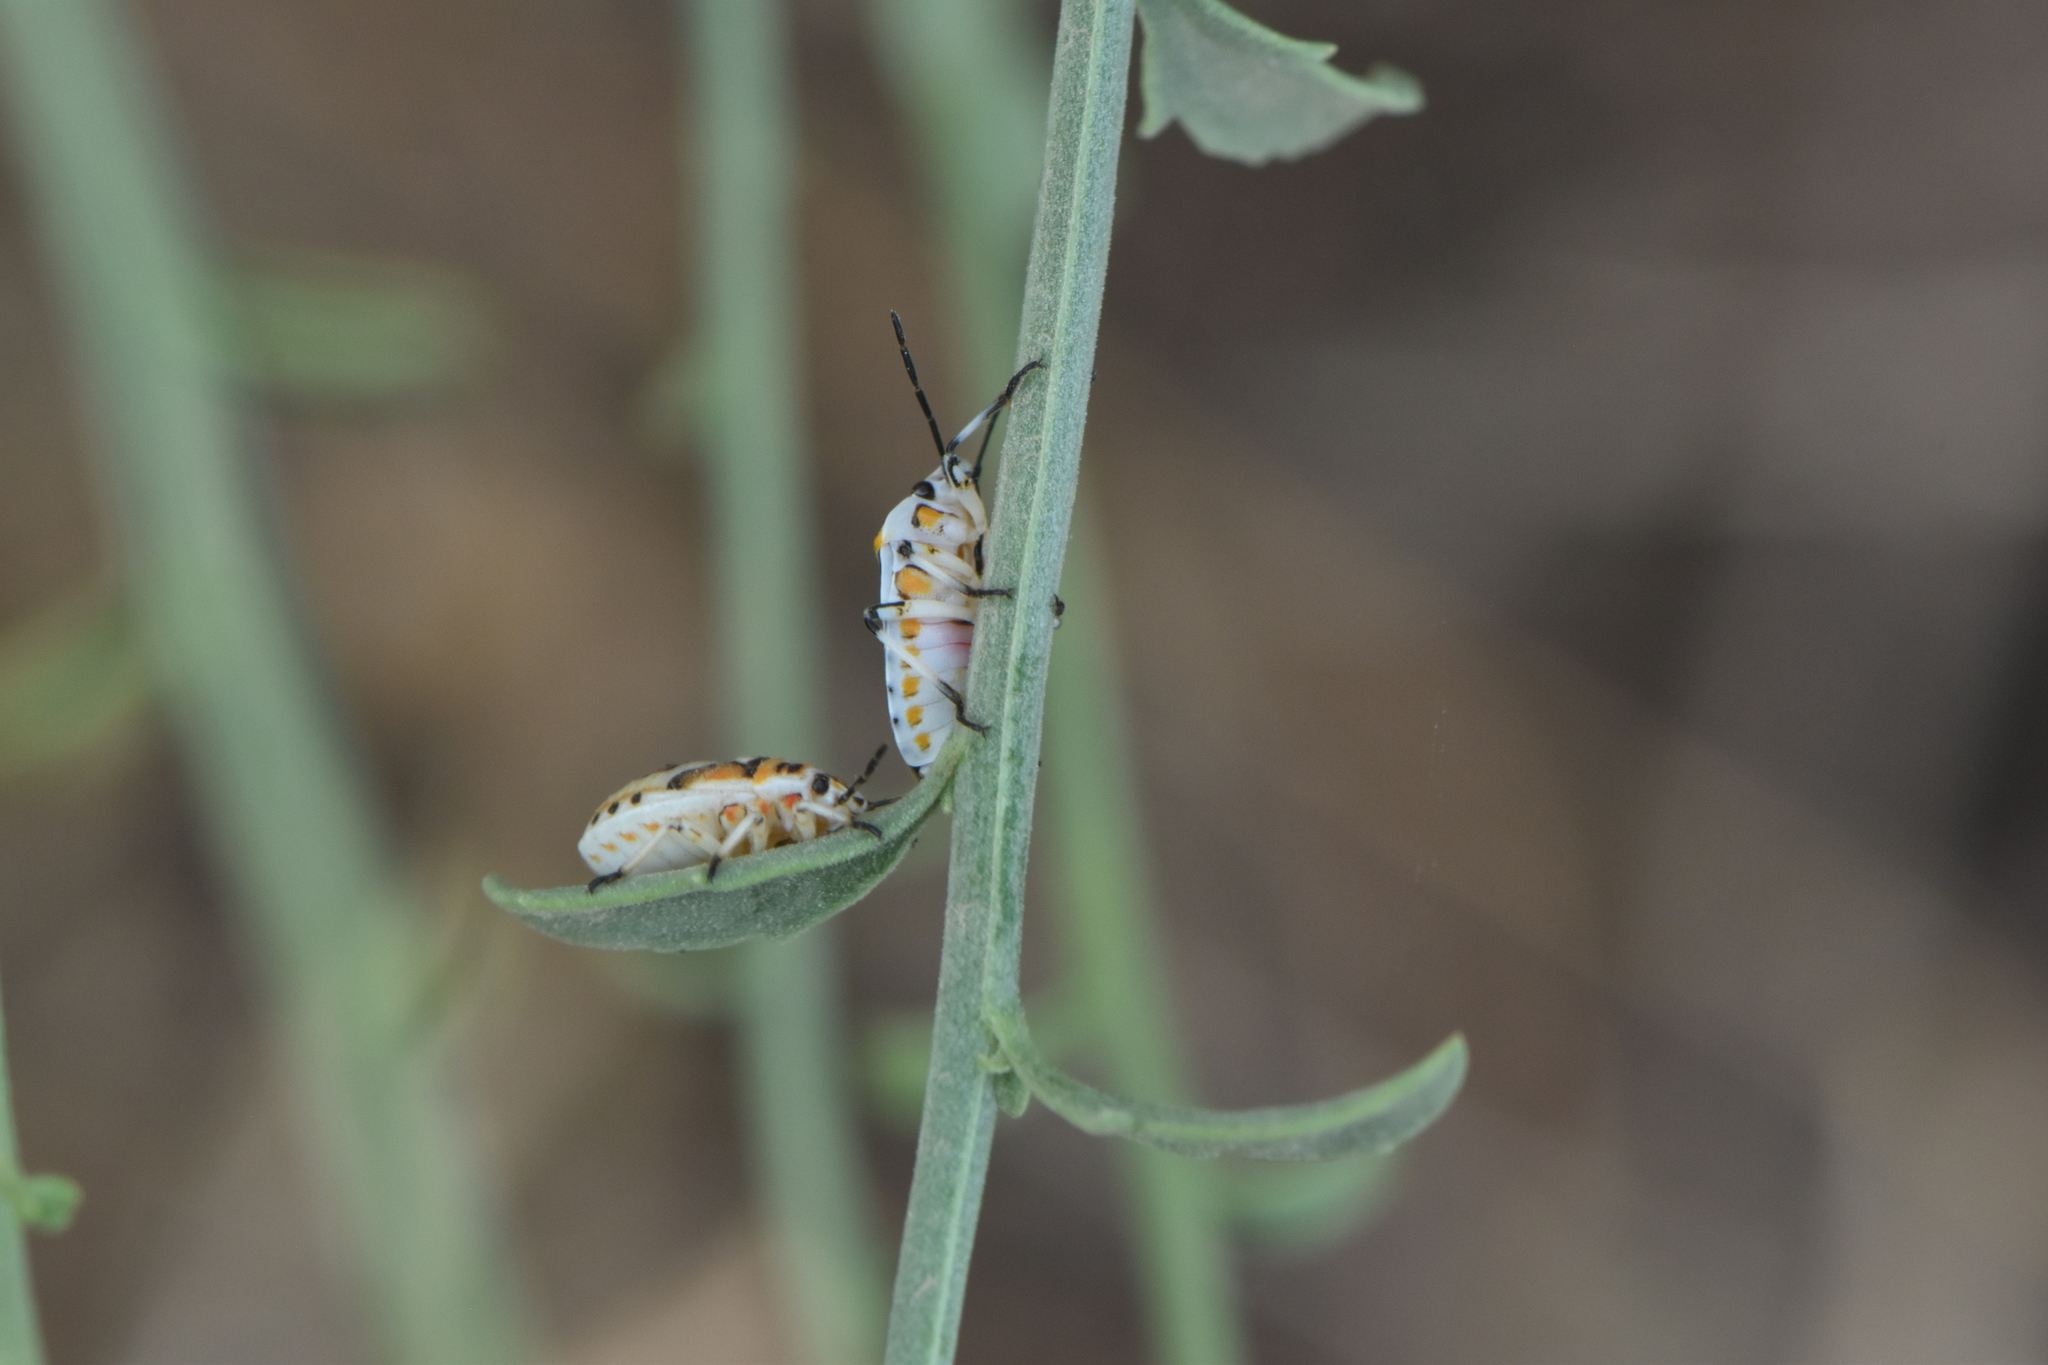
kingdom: Animalia
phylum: Arthropoda
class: Insecta
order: Hemiptera
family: Pentatomidae
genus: Eurydema
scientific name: Eurydema ornata
